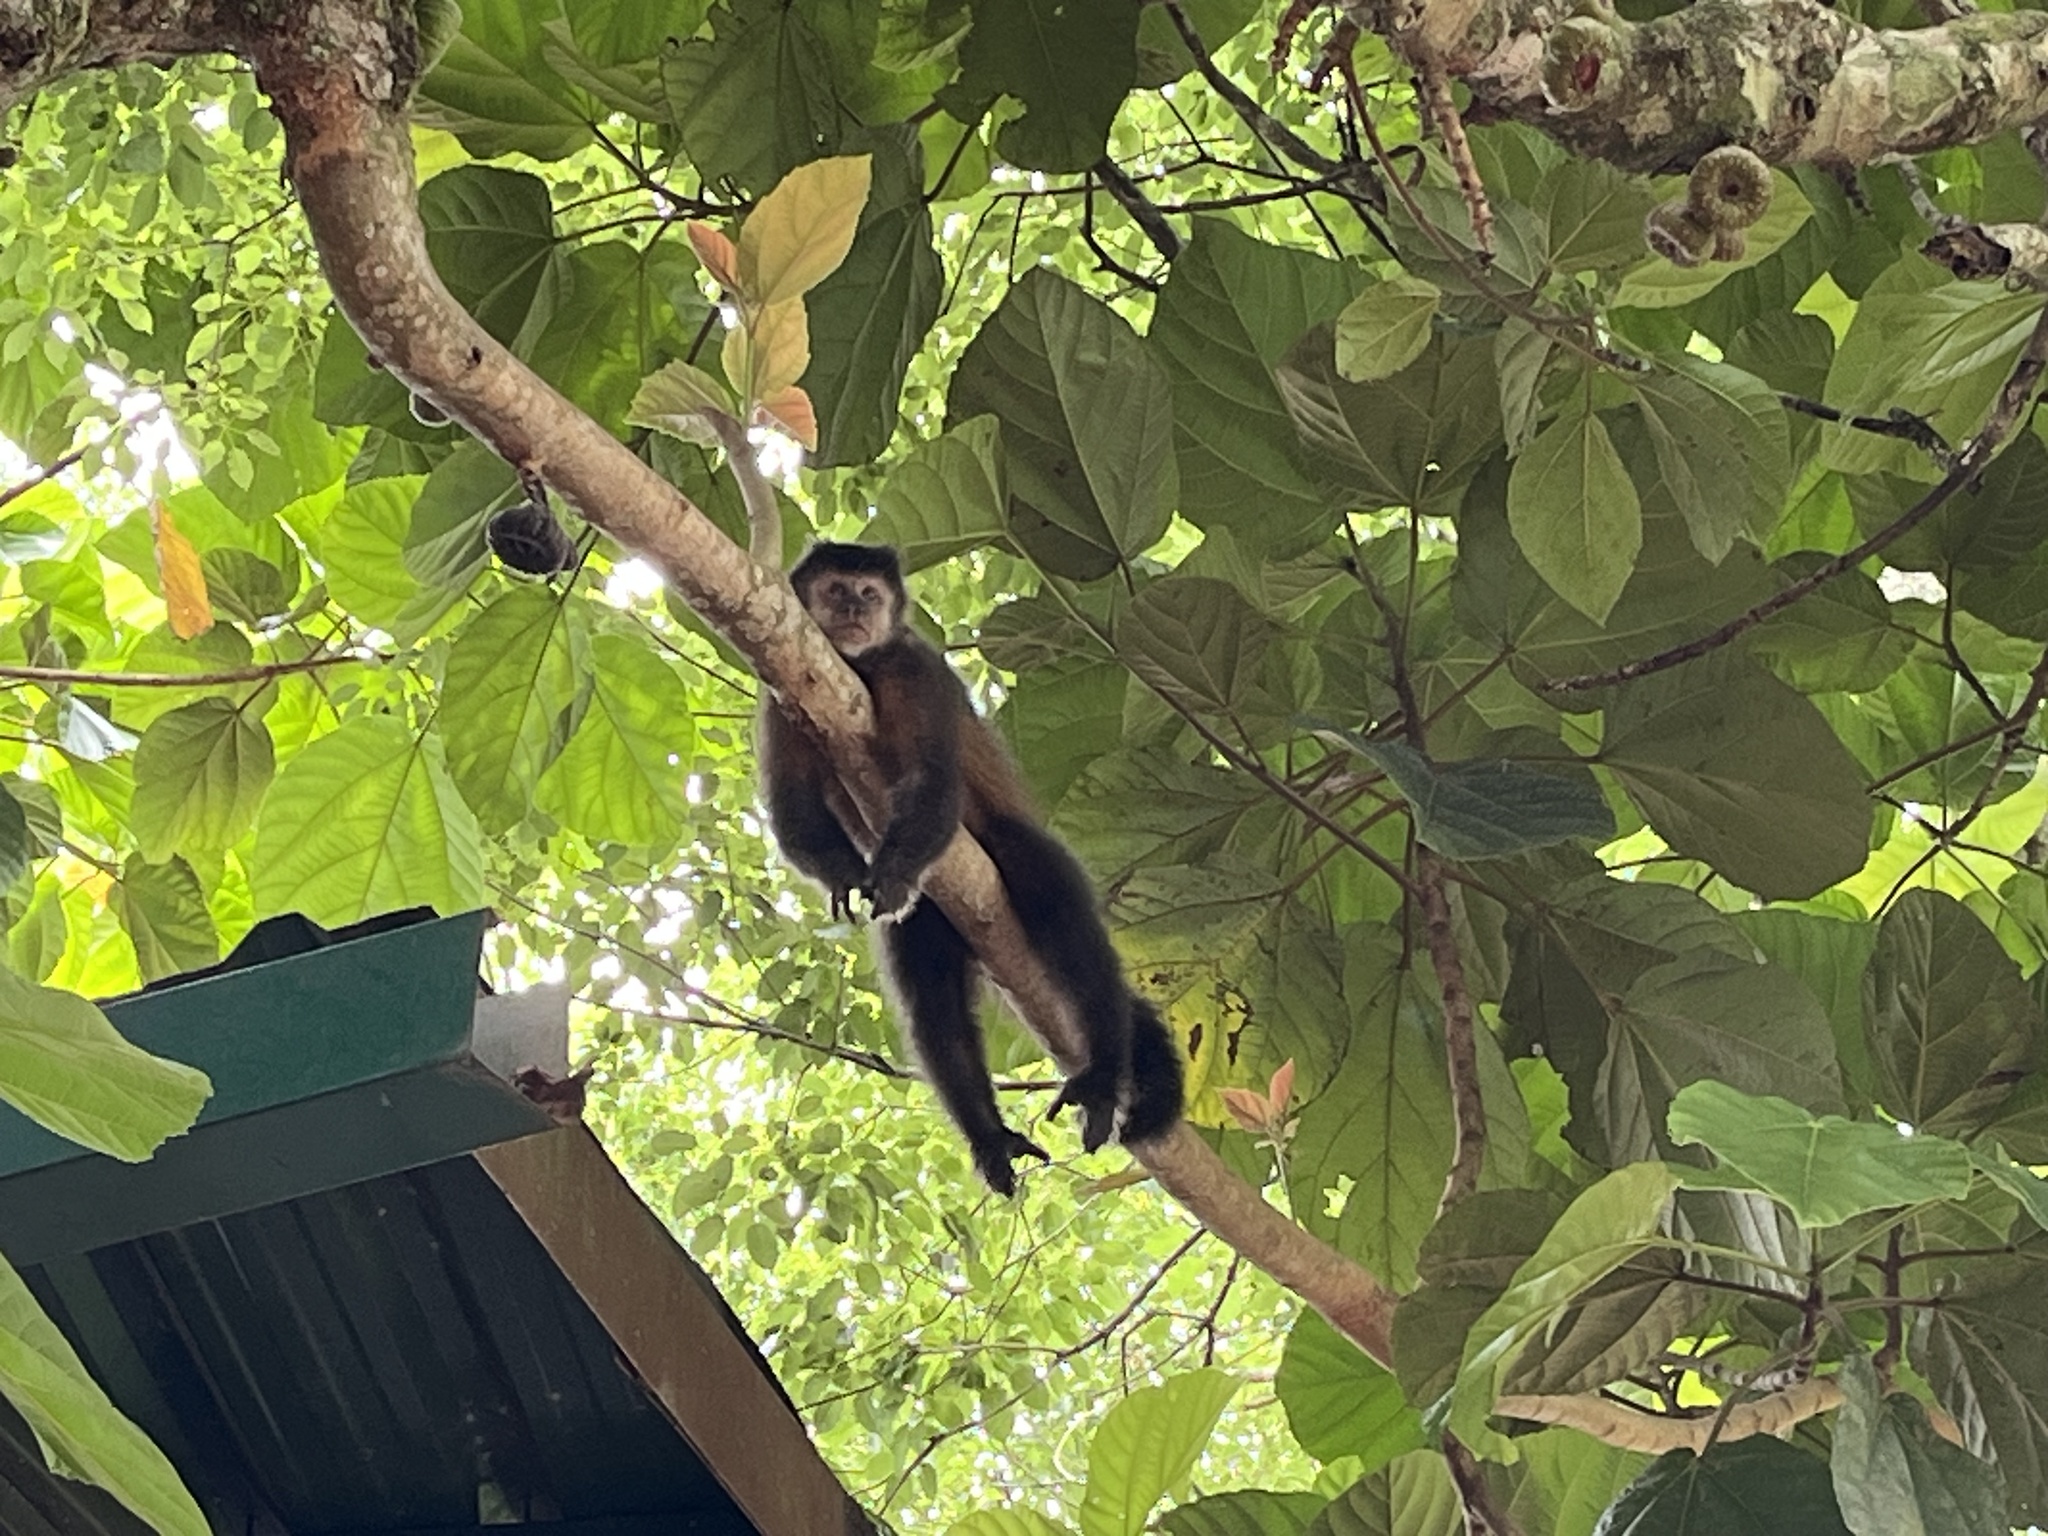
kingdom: Animalia
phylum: Chordata
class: Mammalia
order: Primates
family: Cebidae
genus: Sapajus
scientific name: Sapajus nigritus
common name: Black capuchin
